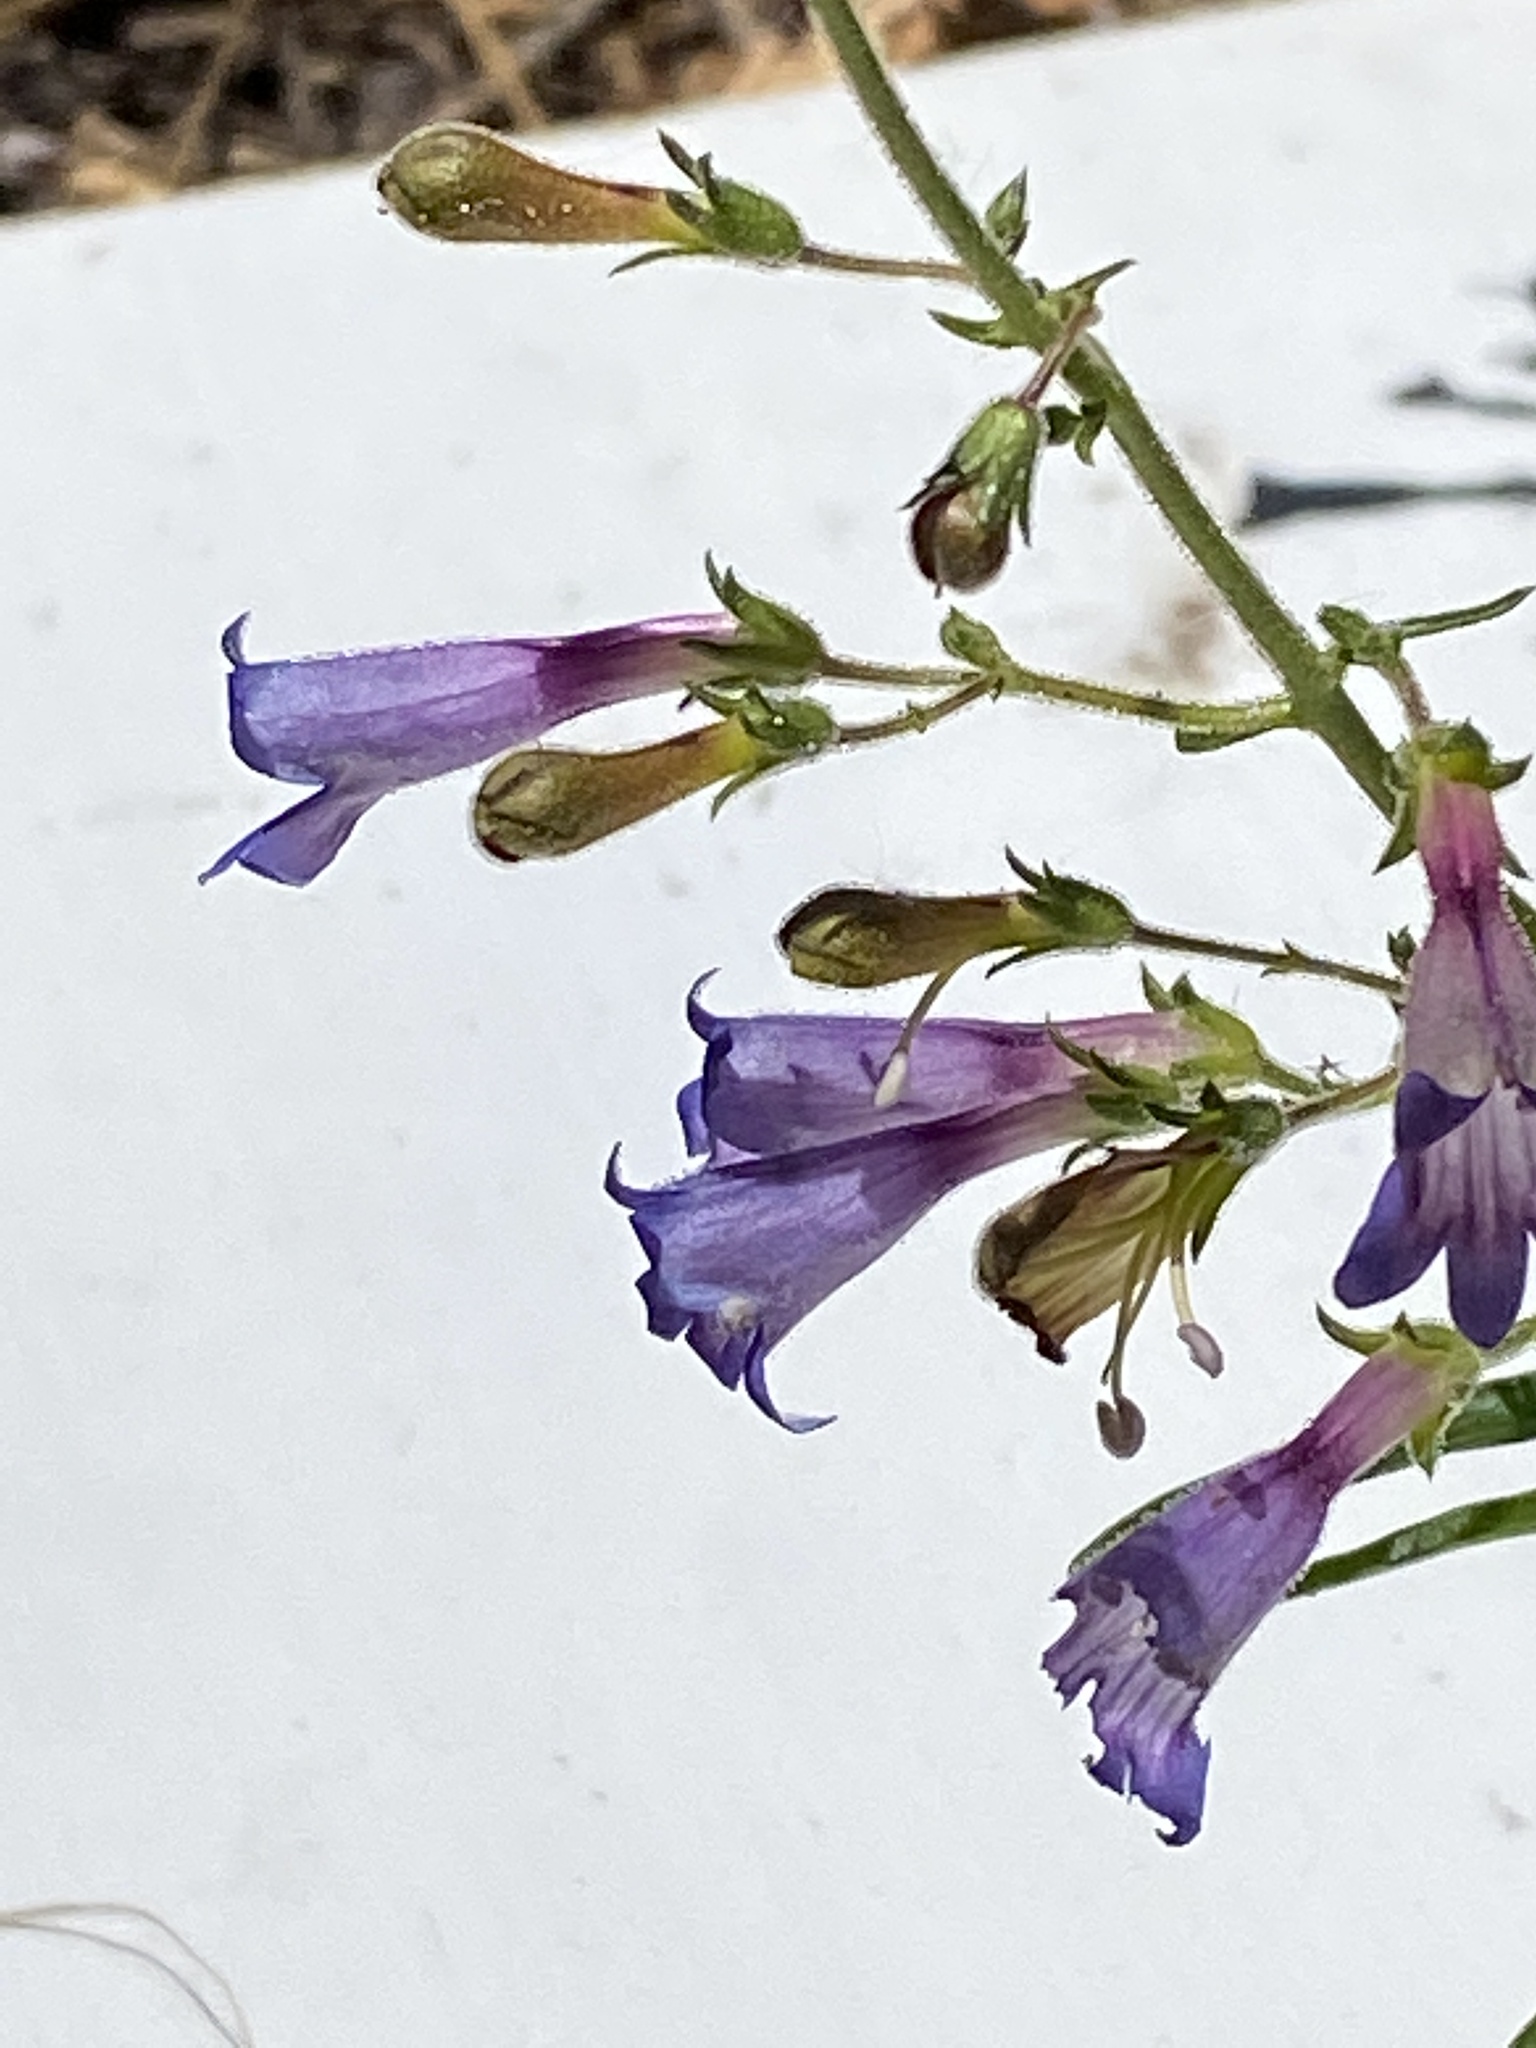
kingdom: Plantae
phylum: Tracheophyta
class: Magnoliopsida
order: Lamiales
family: Plantaginaceae
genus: Penstemon
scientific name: Penstemon laetus
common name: Gay penstemon
